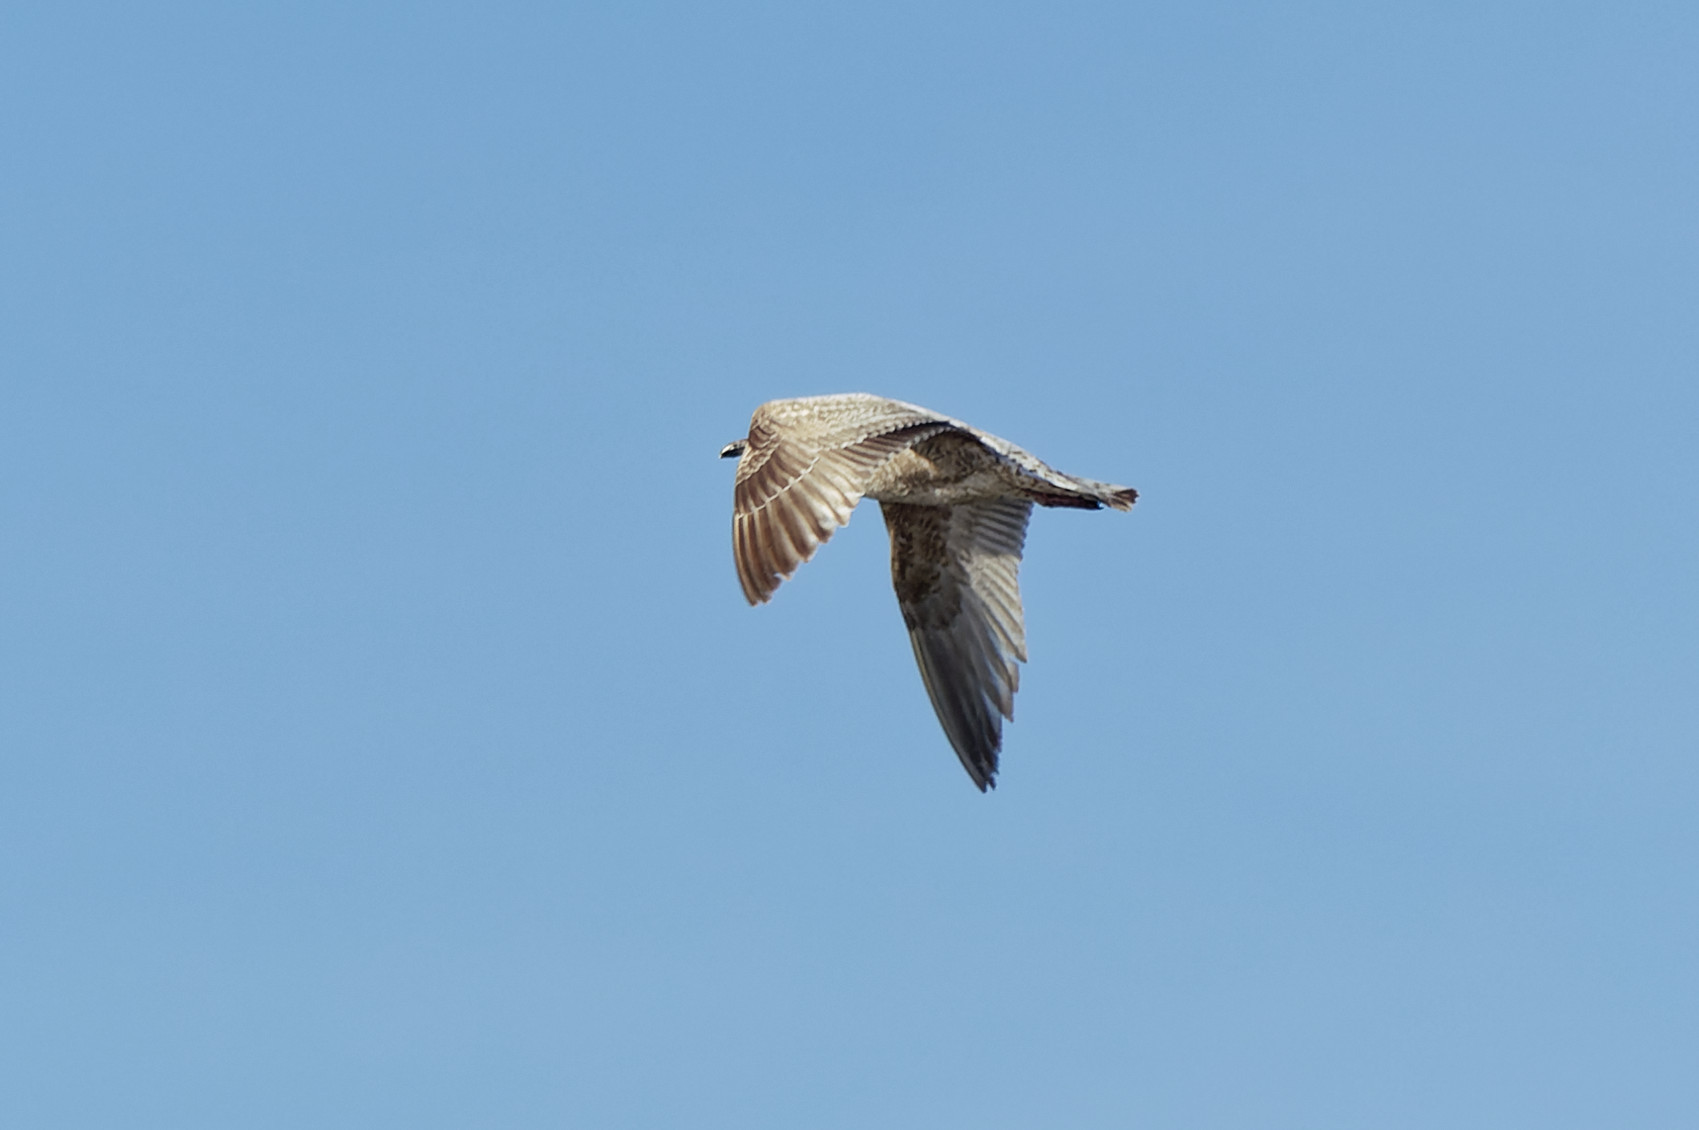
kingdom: Animalia
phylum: Chordata
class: Aves
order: Charadriiformes
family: Laridae
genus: Larus
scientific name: Larus argentatus
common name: Herring gull
